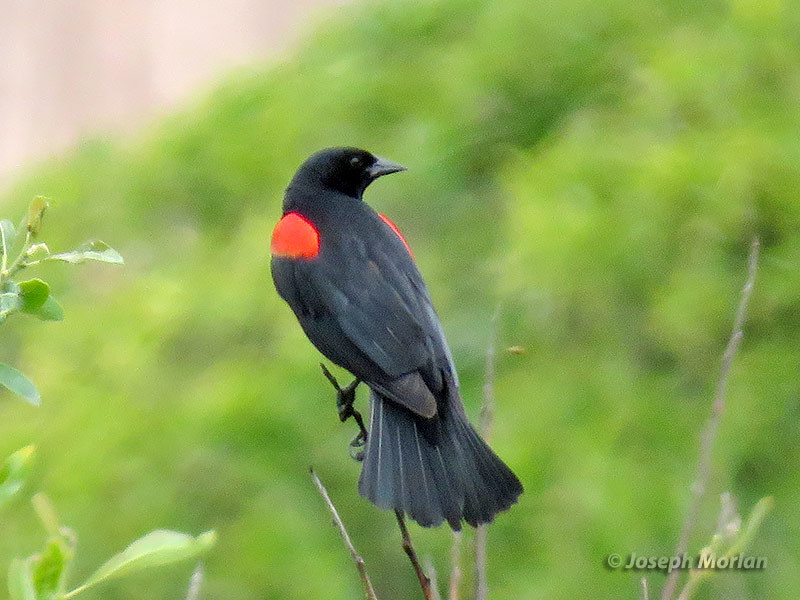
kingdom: Animalia
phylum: Chordata
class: Aves
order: Passeriformes
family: Icteridae
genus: Agelaius
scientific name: Agelaius phoeniceus
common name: Red-winged blackbird
